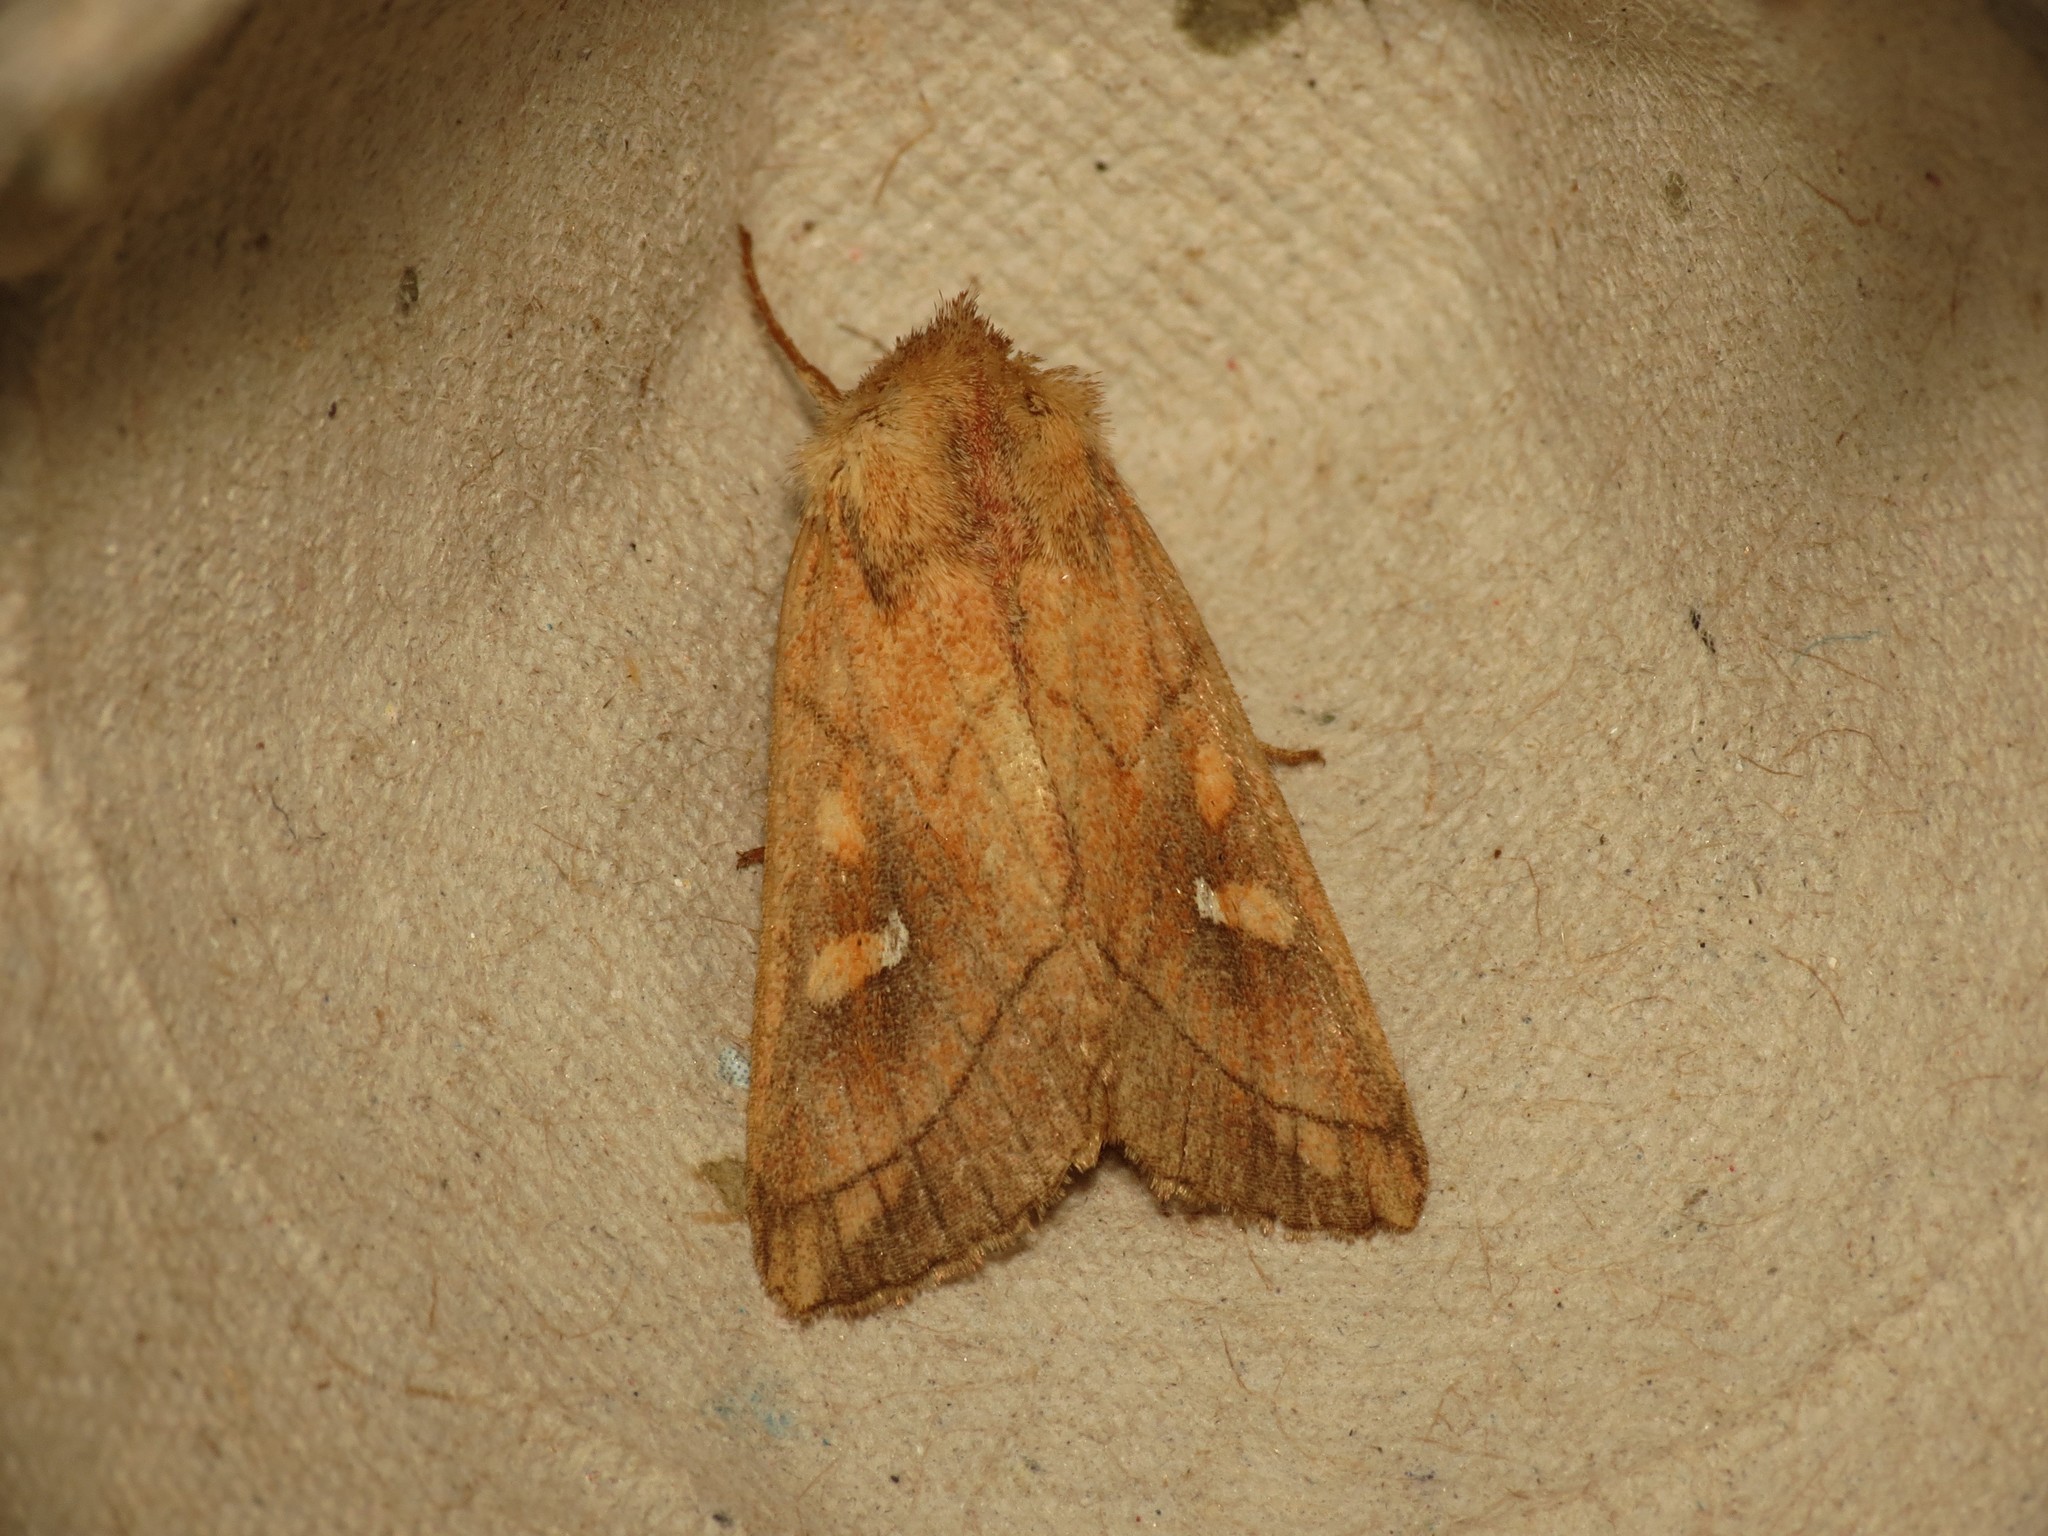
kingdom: Animalia
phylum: Arthropoda
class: Insecta
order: Lepidoptera
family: Noctuidae
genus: Mythimna
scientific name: Mythimna conigera
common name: Brown-line bright-eye
